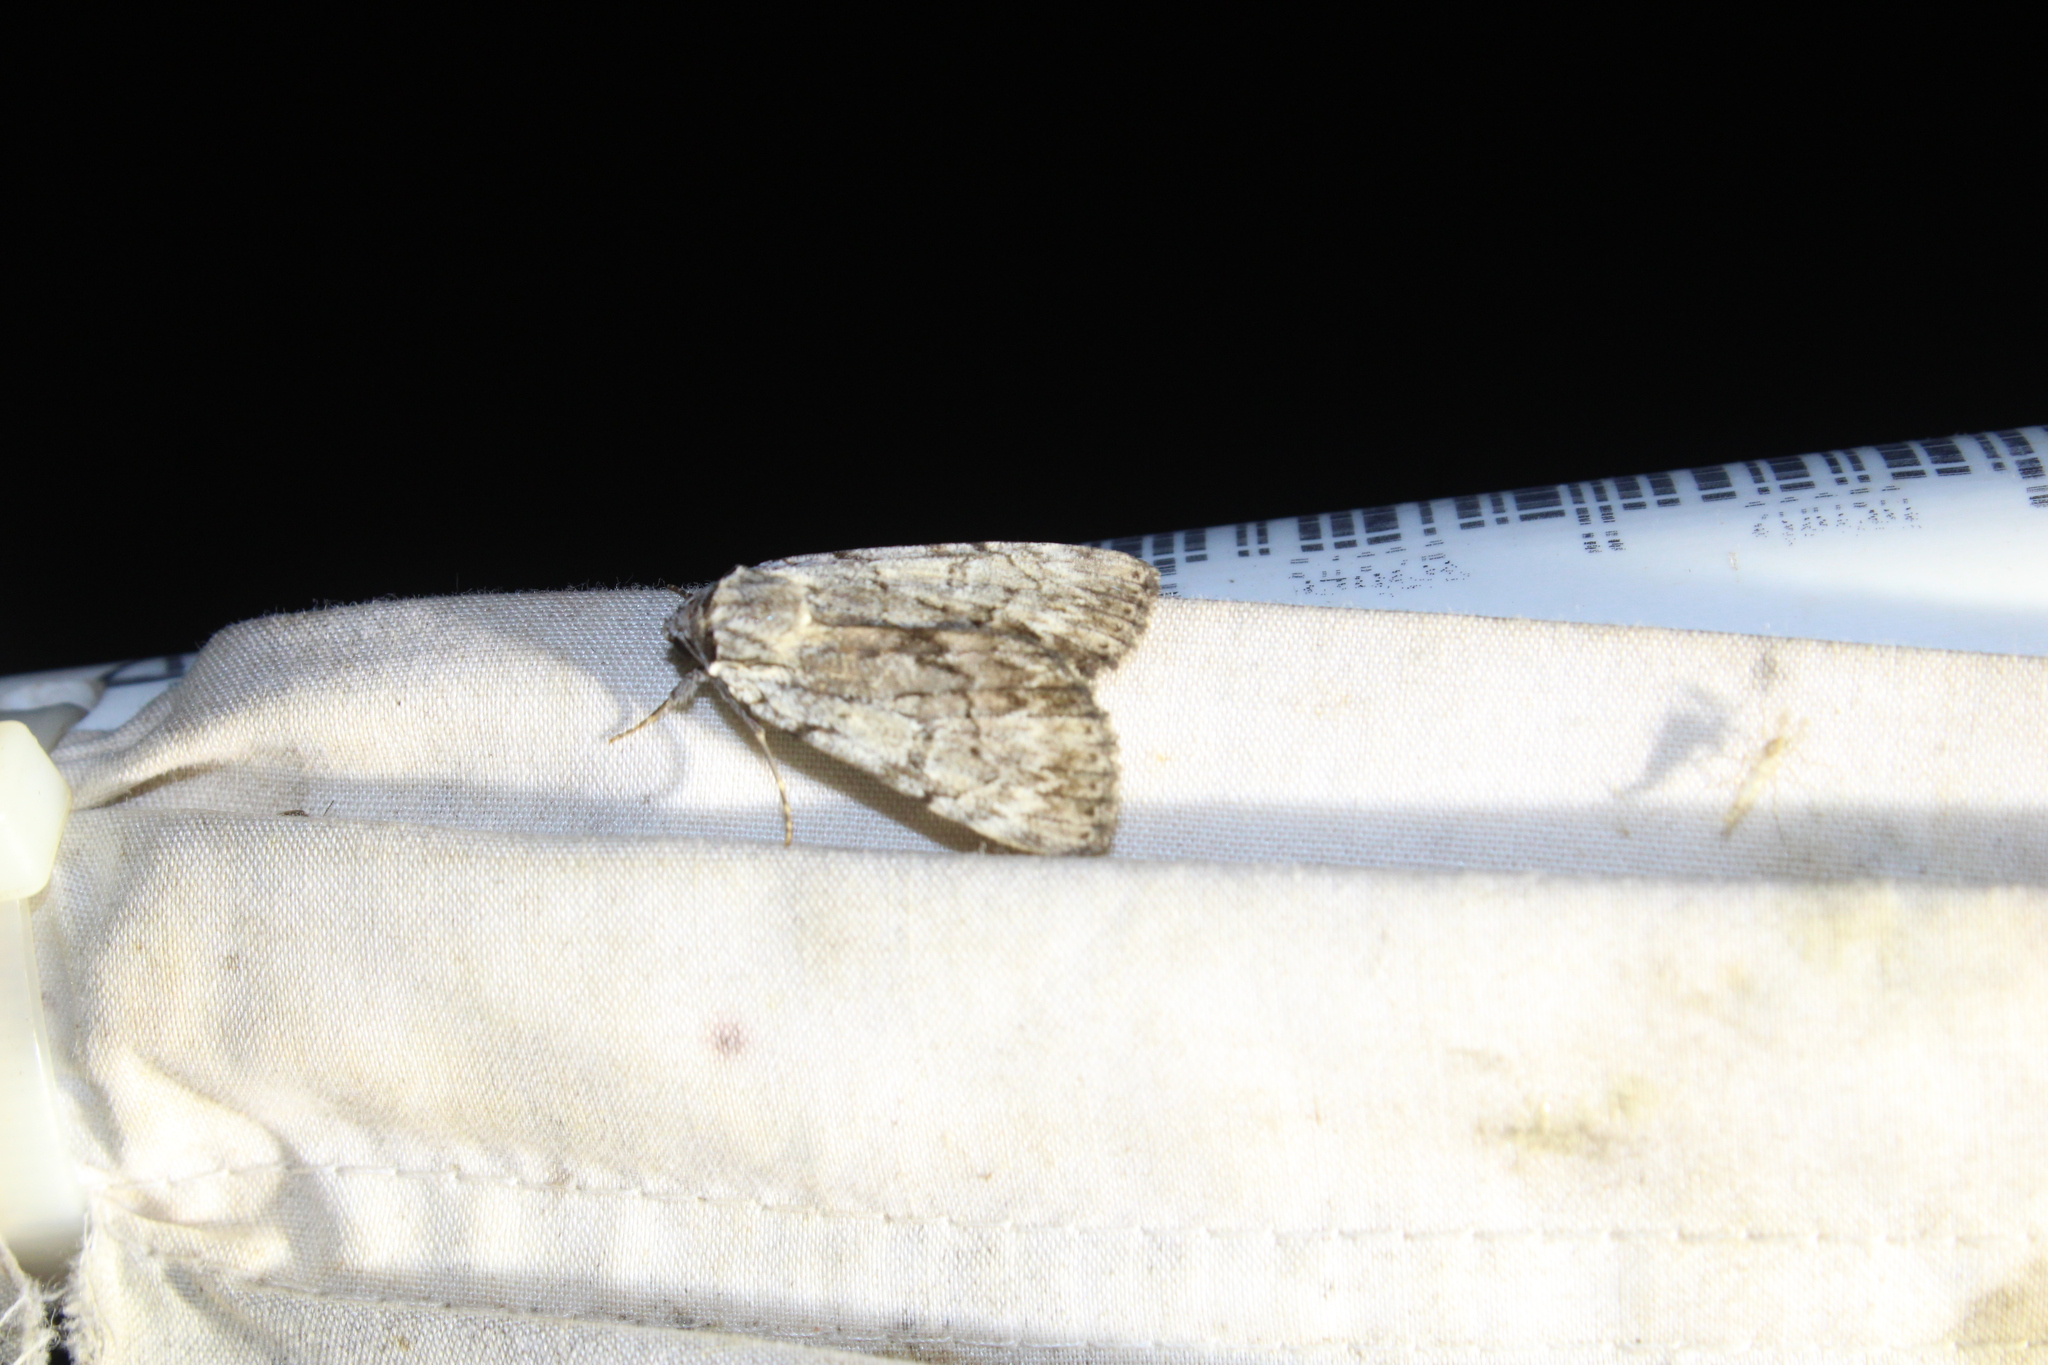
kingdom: Animalia
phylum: Arthropoda
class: Insecta
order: Lepidoptera
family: Erebidae
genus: Catocala
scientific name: Catocala sordida
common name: Sordid underwing
